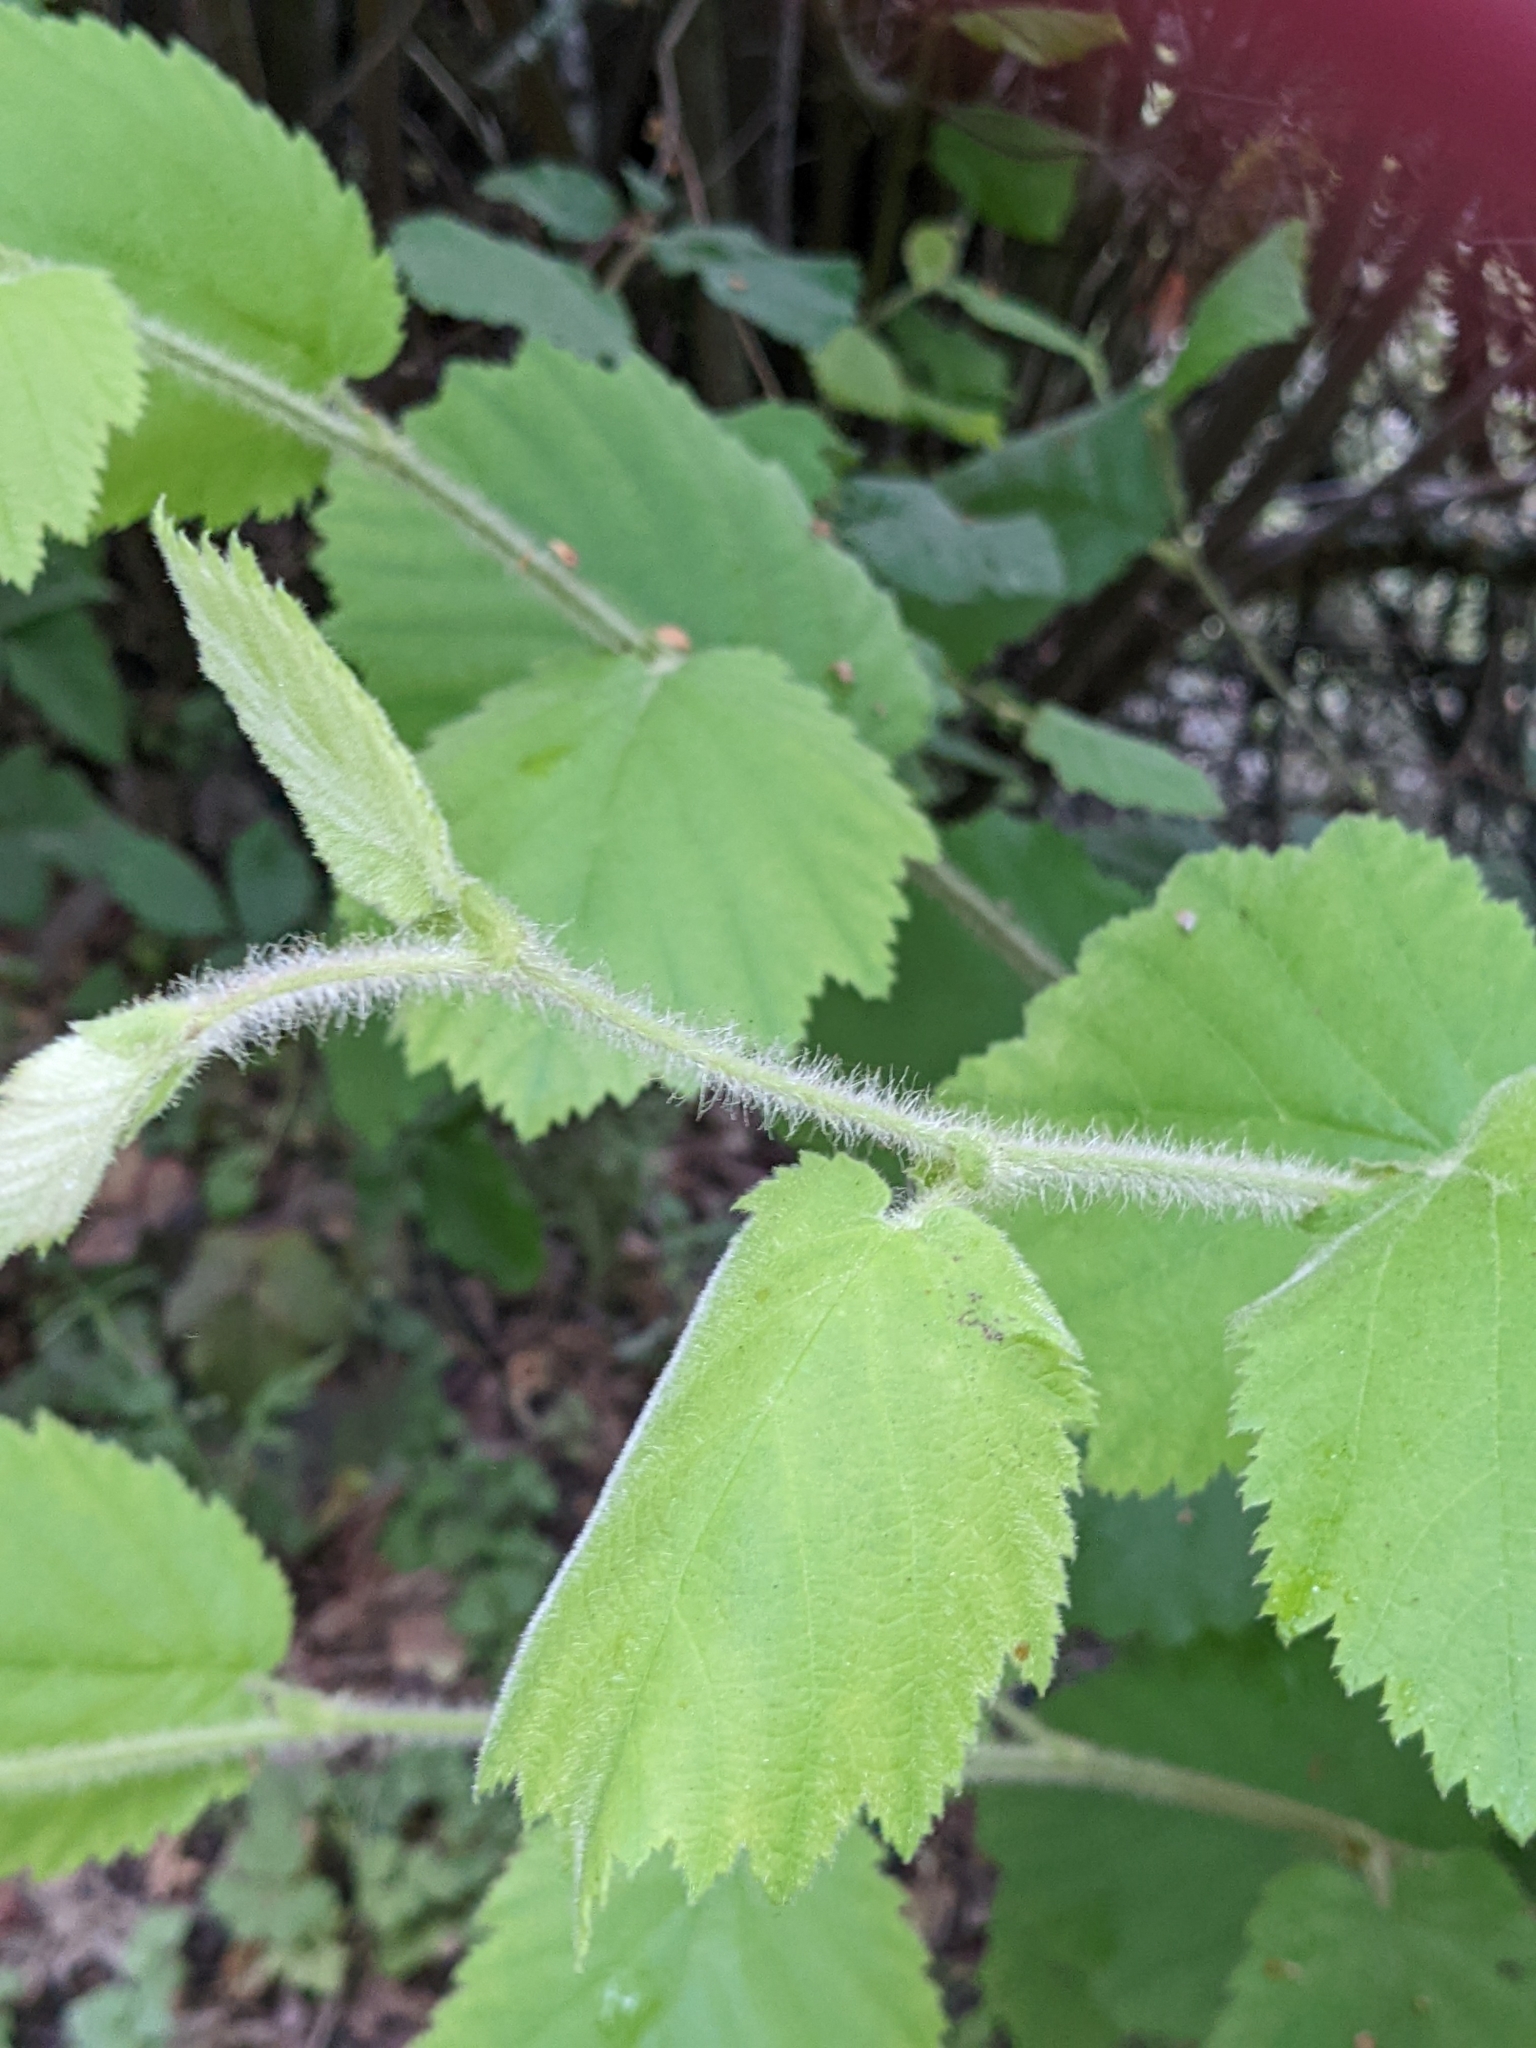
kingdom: Plantae
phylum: Tracheophyta
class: Magnoliopsida
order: Fagales
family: Betulaceae
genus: Corylus
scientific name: Corylus cornuta
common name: Beaked hazel
